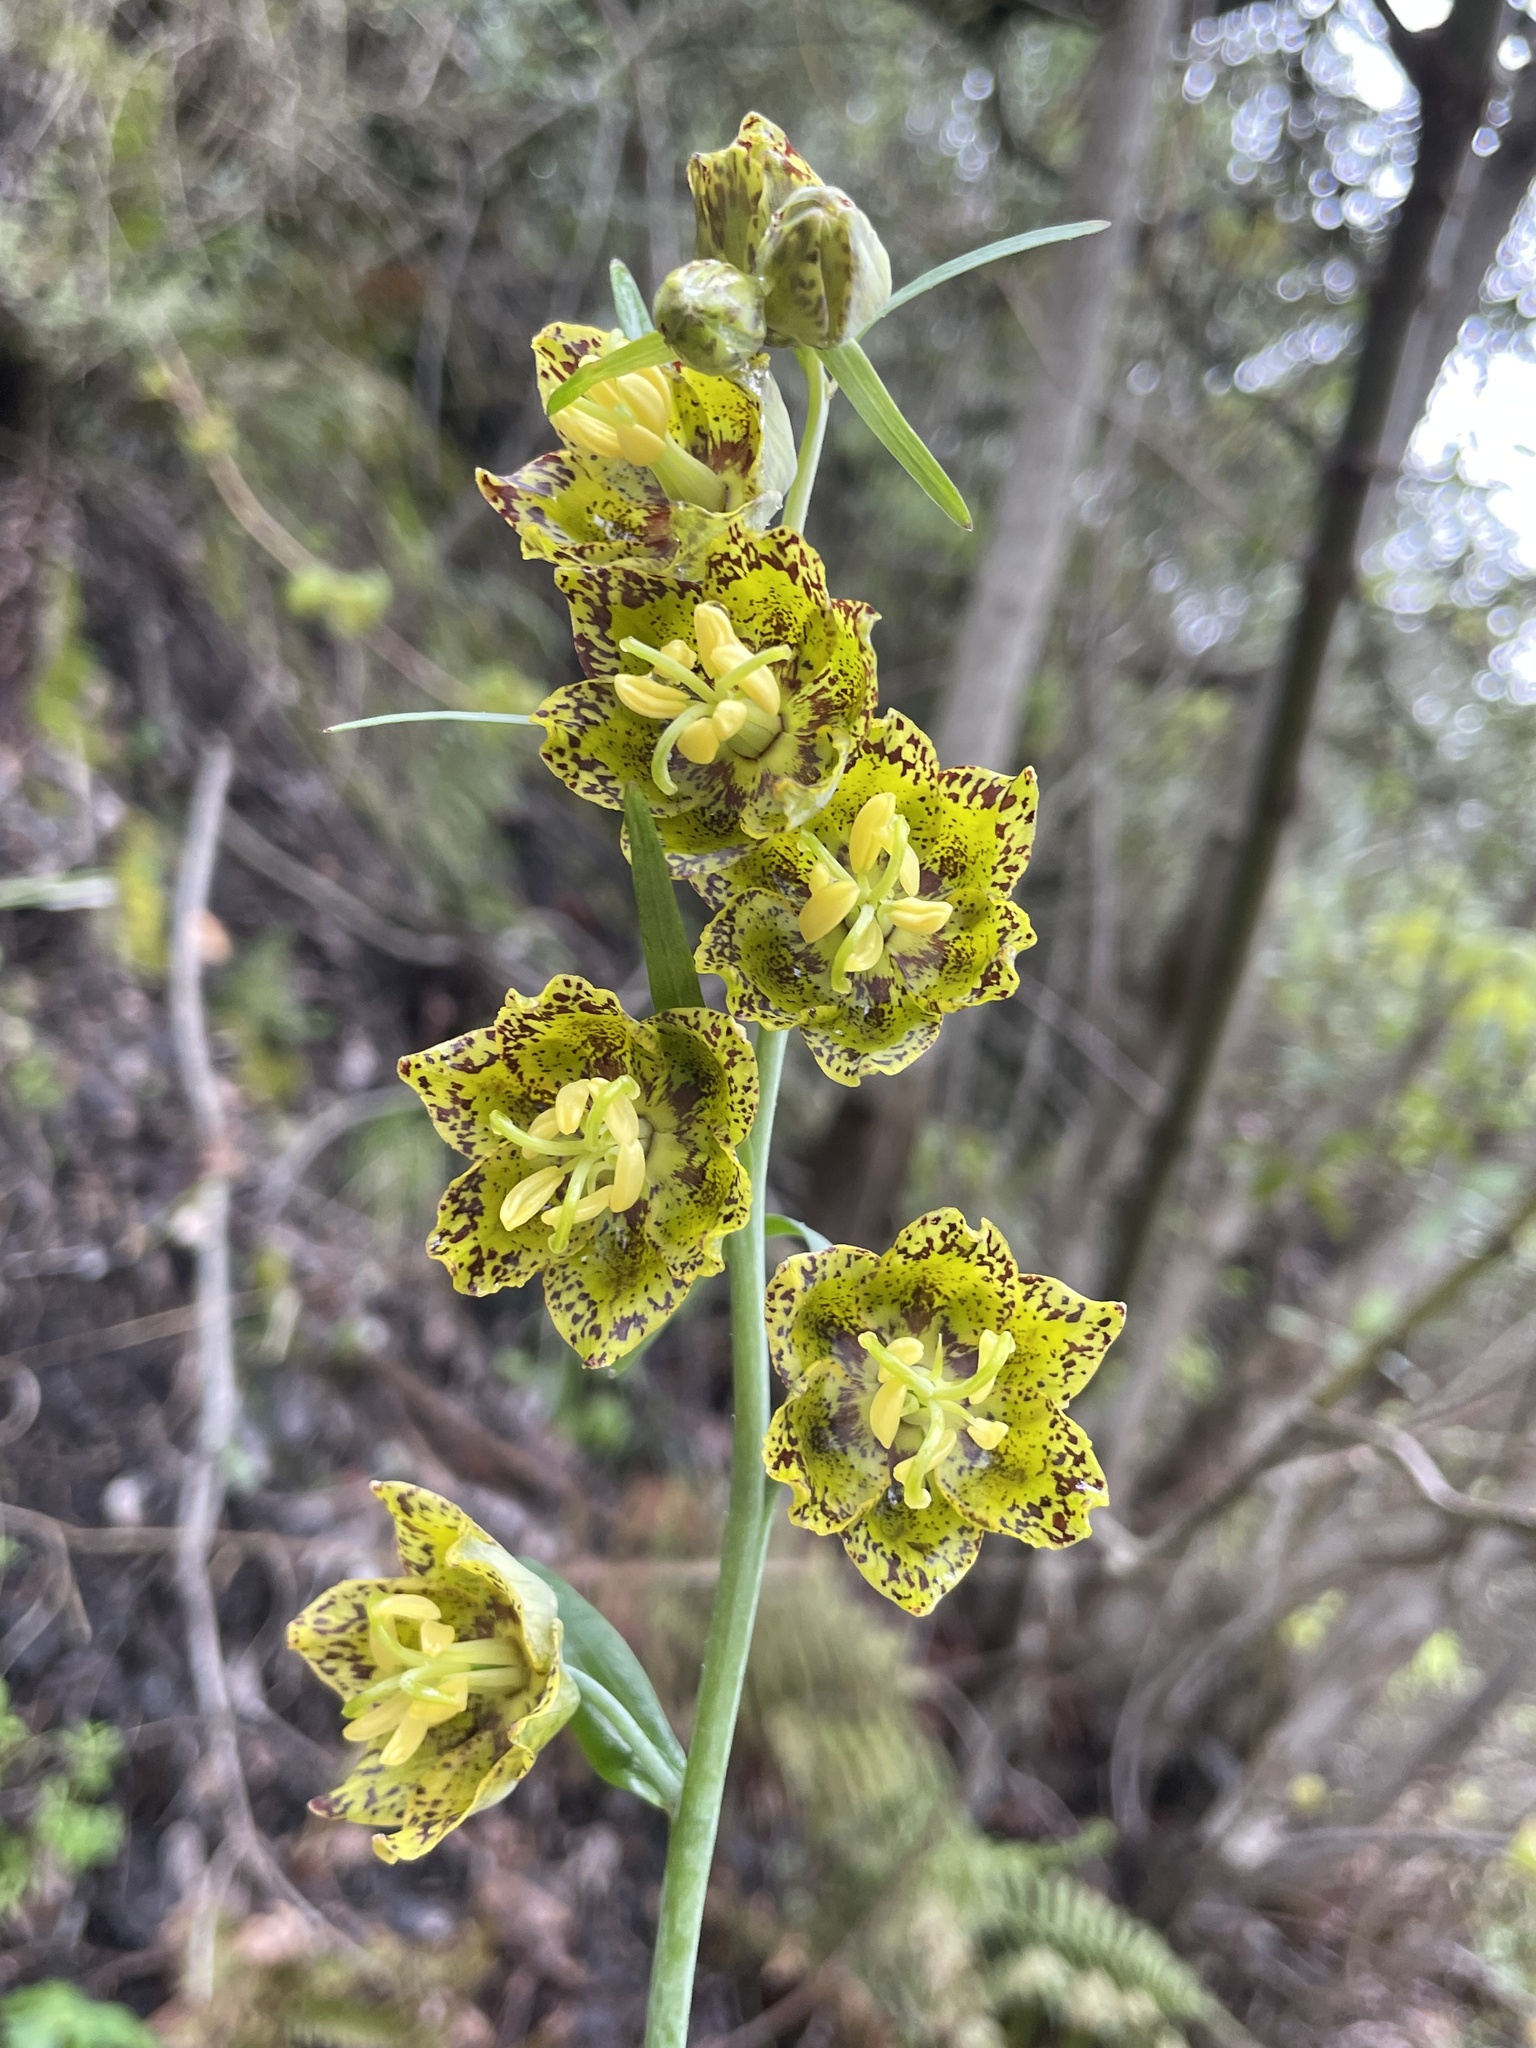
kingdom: Plantae
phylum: Tracheophyta
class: Liliopsida
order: Liliales
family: Liliaceae
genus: Fritillaria
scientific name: Fritillaria ojaiensis
